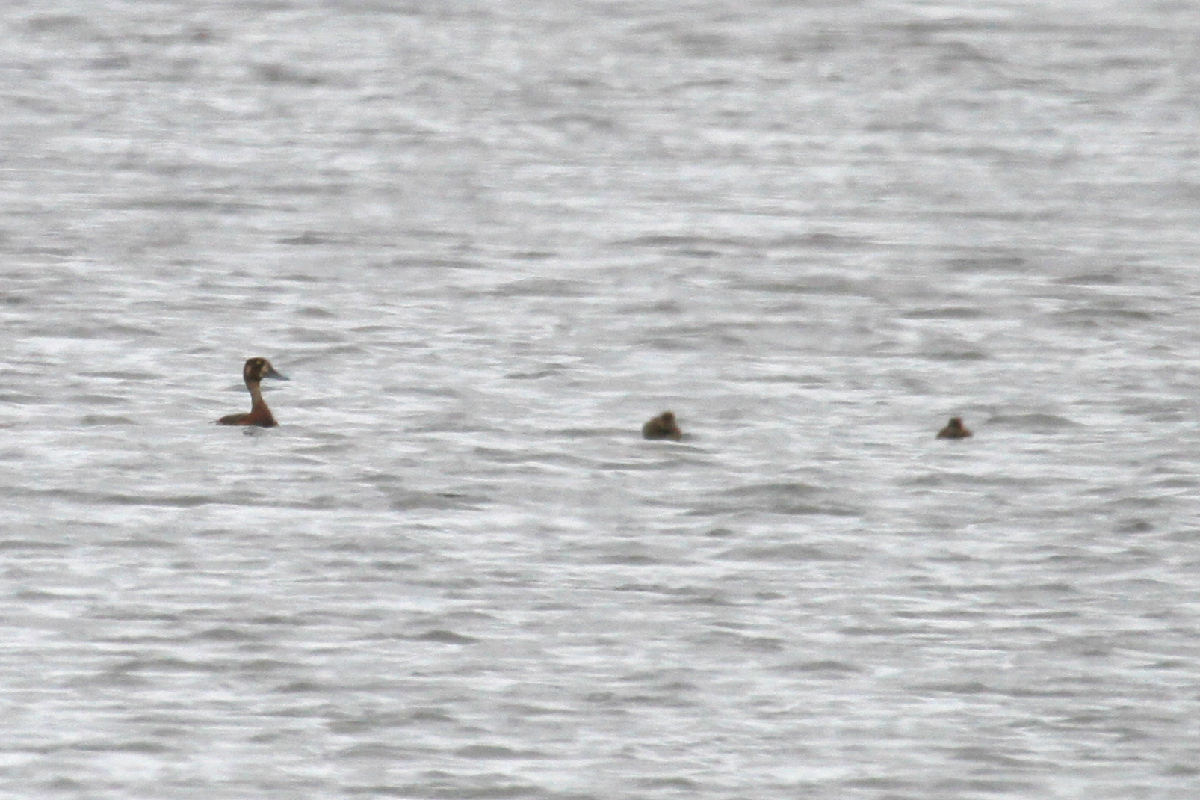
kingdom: Animalia
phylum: Chordata
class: Aves
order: Anseriformes
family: Anatidae
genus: Aythya
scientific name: Aythya marila
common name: Greater scaup
